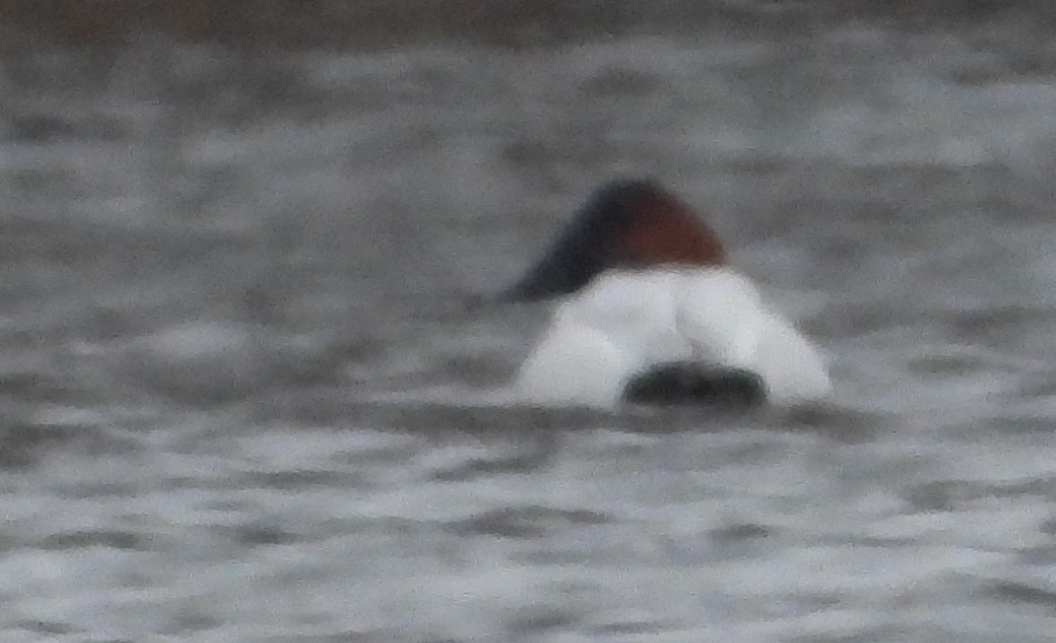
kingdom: Animalia
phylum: Chordata
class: Aves
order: Anseriformes
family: Anatidae
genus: Aythya
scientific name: Aythya valisineria
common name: Canvasback
